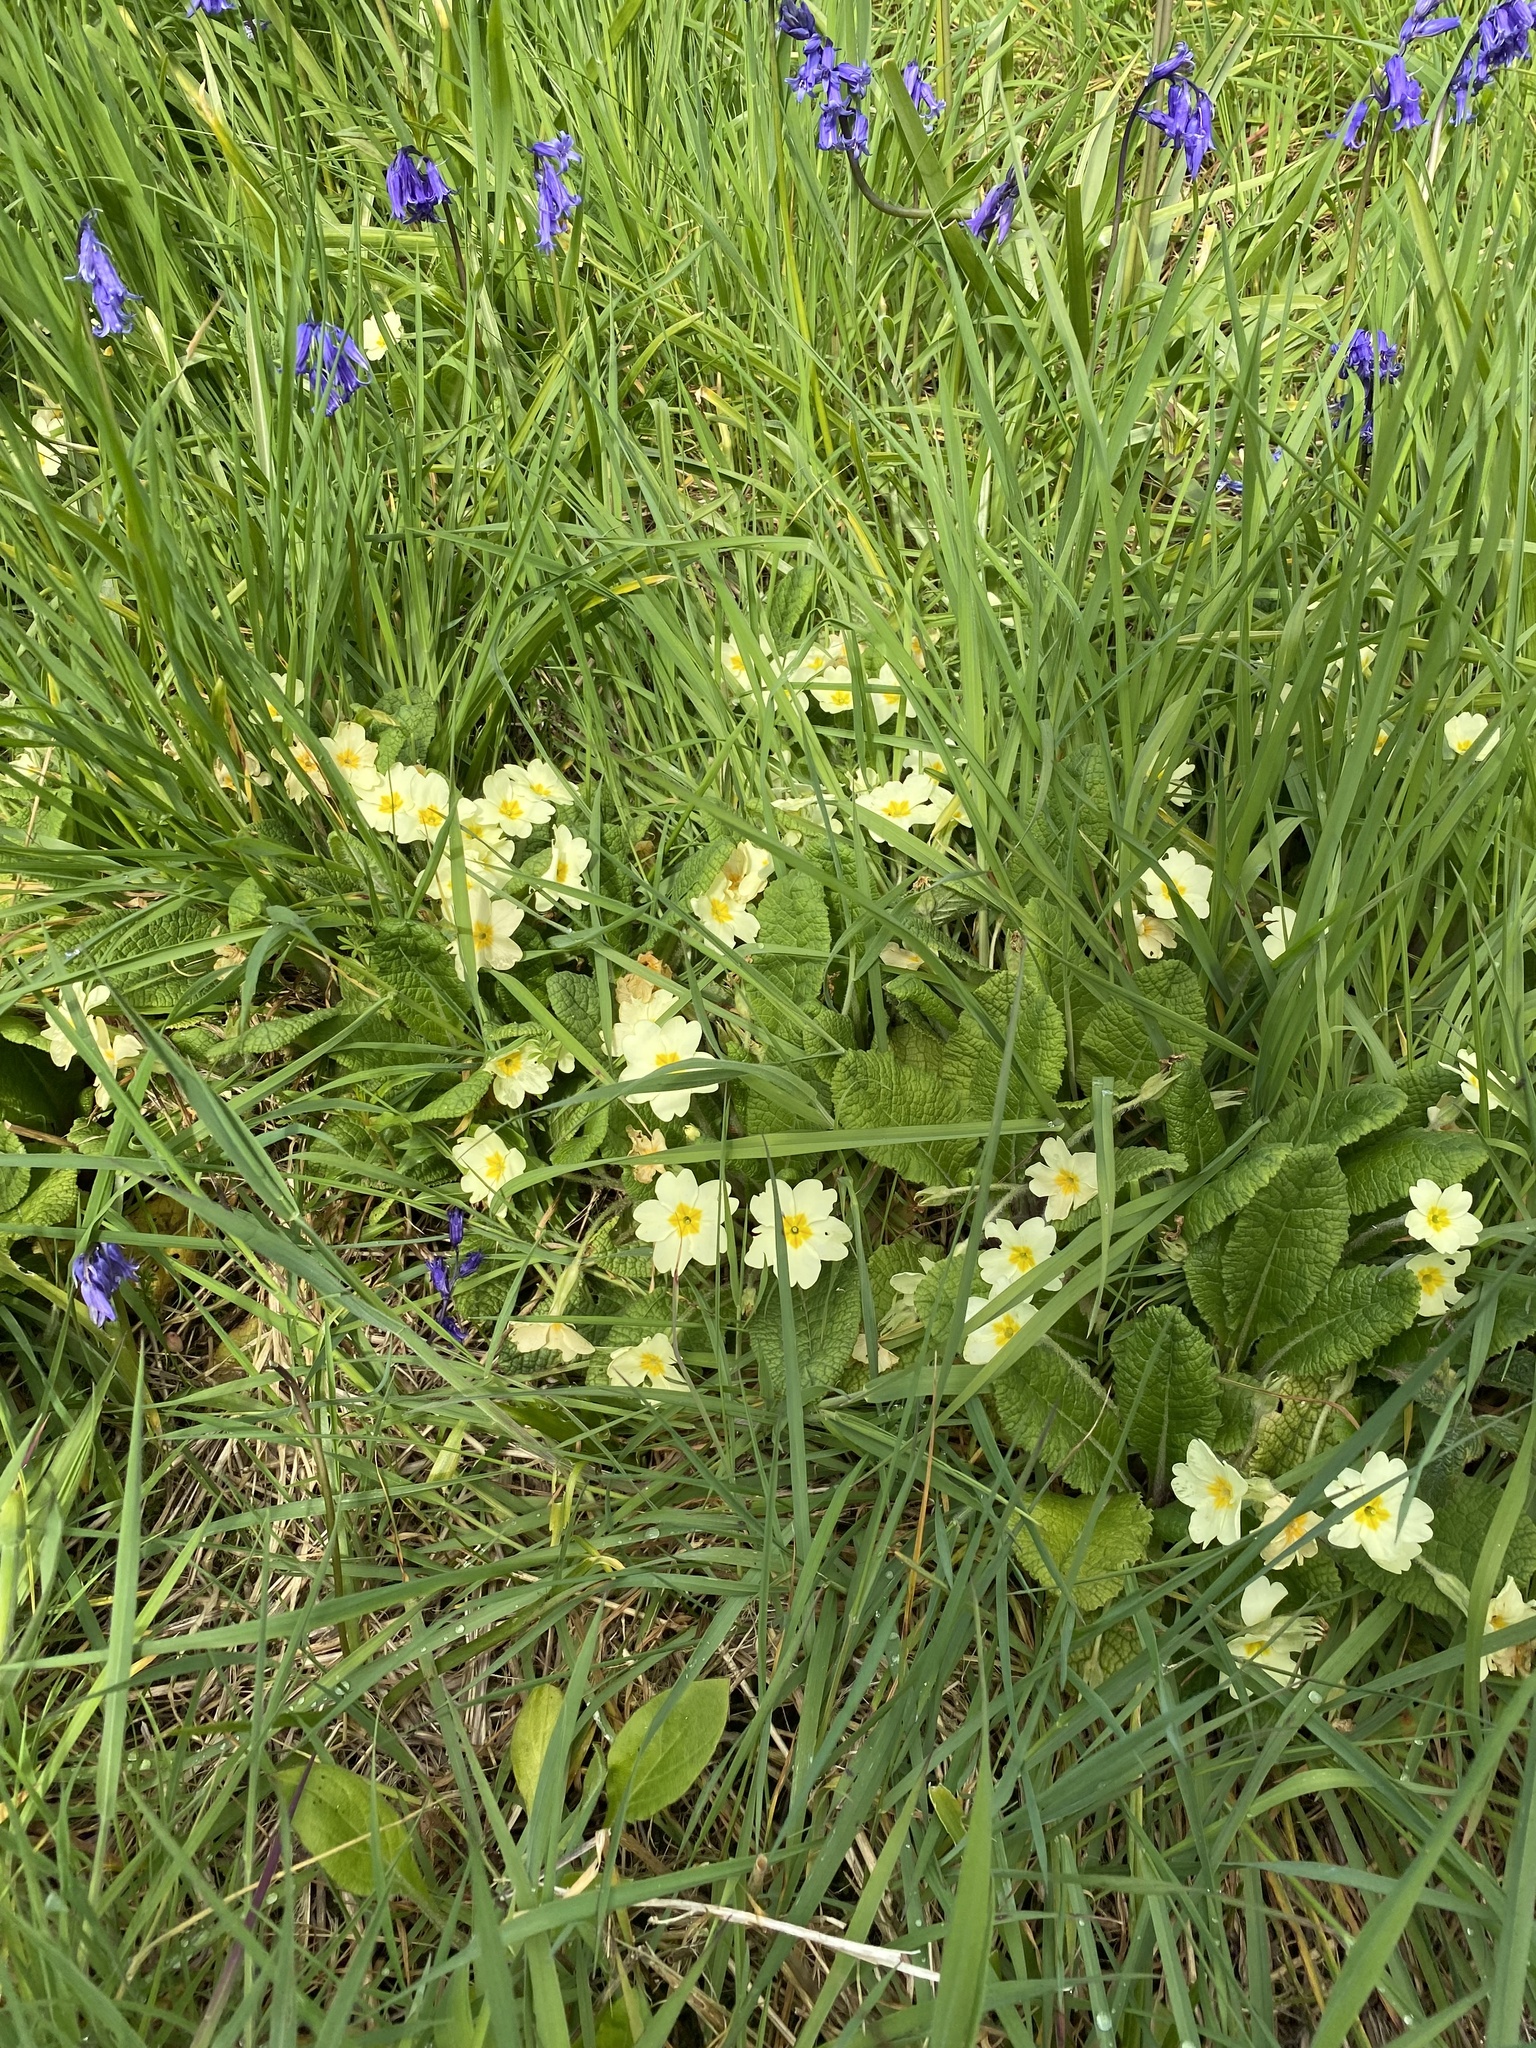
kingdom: Plantae
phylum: Tracheophyta
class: Magnoliopsida
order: Ericales
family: Primulaceae
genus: Primula
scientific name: Primula vulgaris
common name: Primrose
